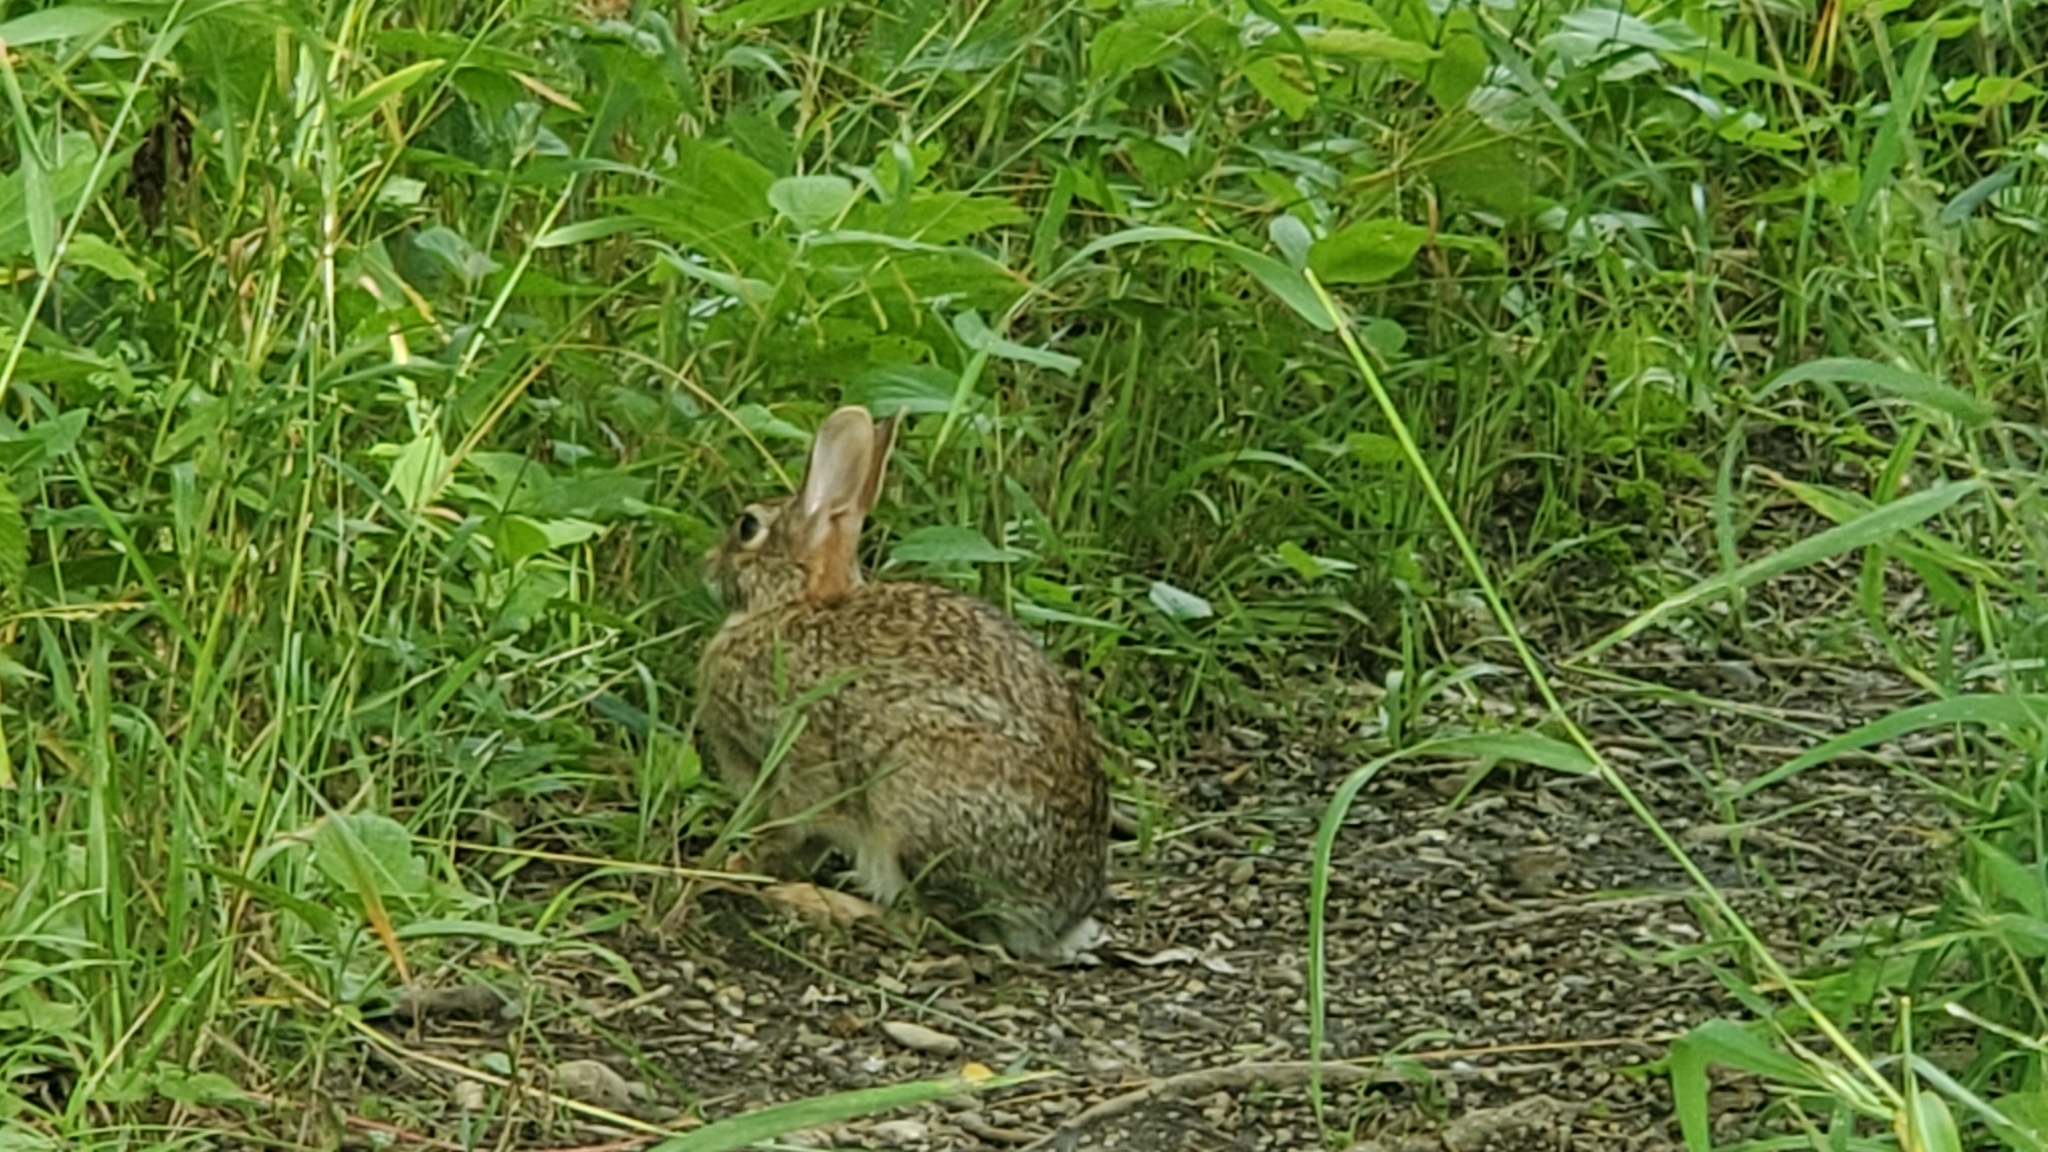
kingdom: Animalia
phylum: Chordata
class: Mammalia
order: Lagomorpha
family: Leporidae
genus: Sylvilagus
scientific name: Sylvilagus floridanus
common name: Eastern cottontail
